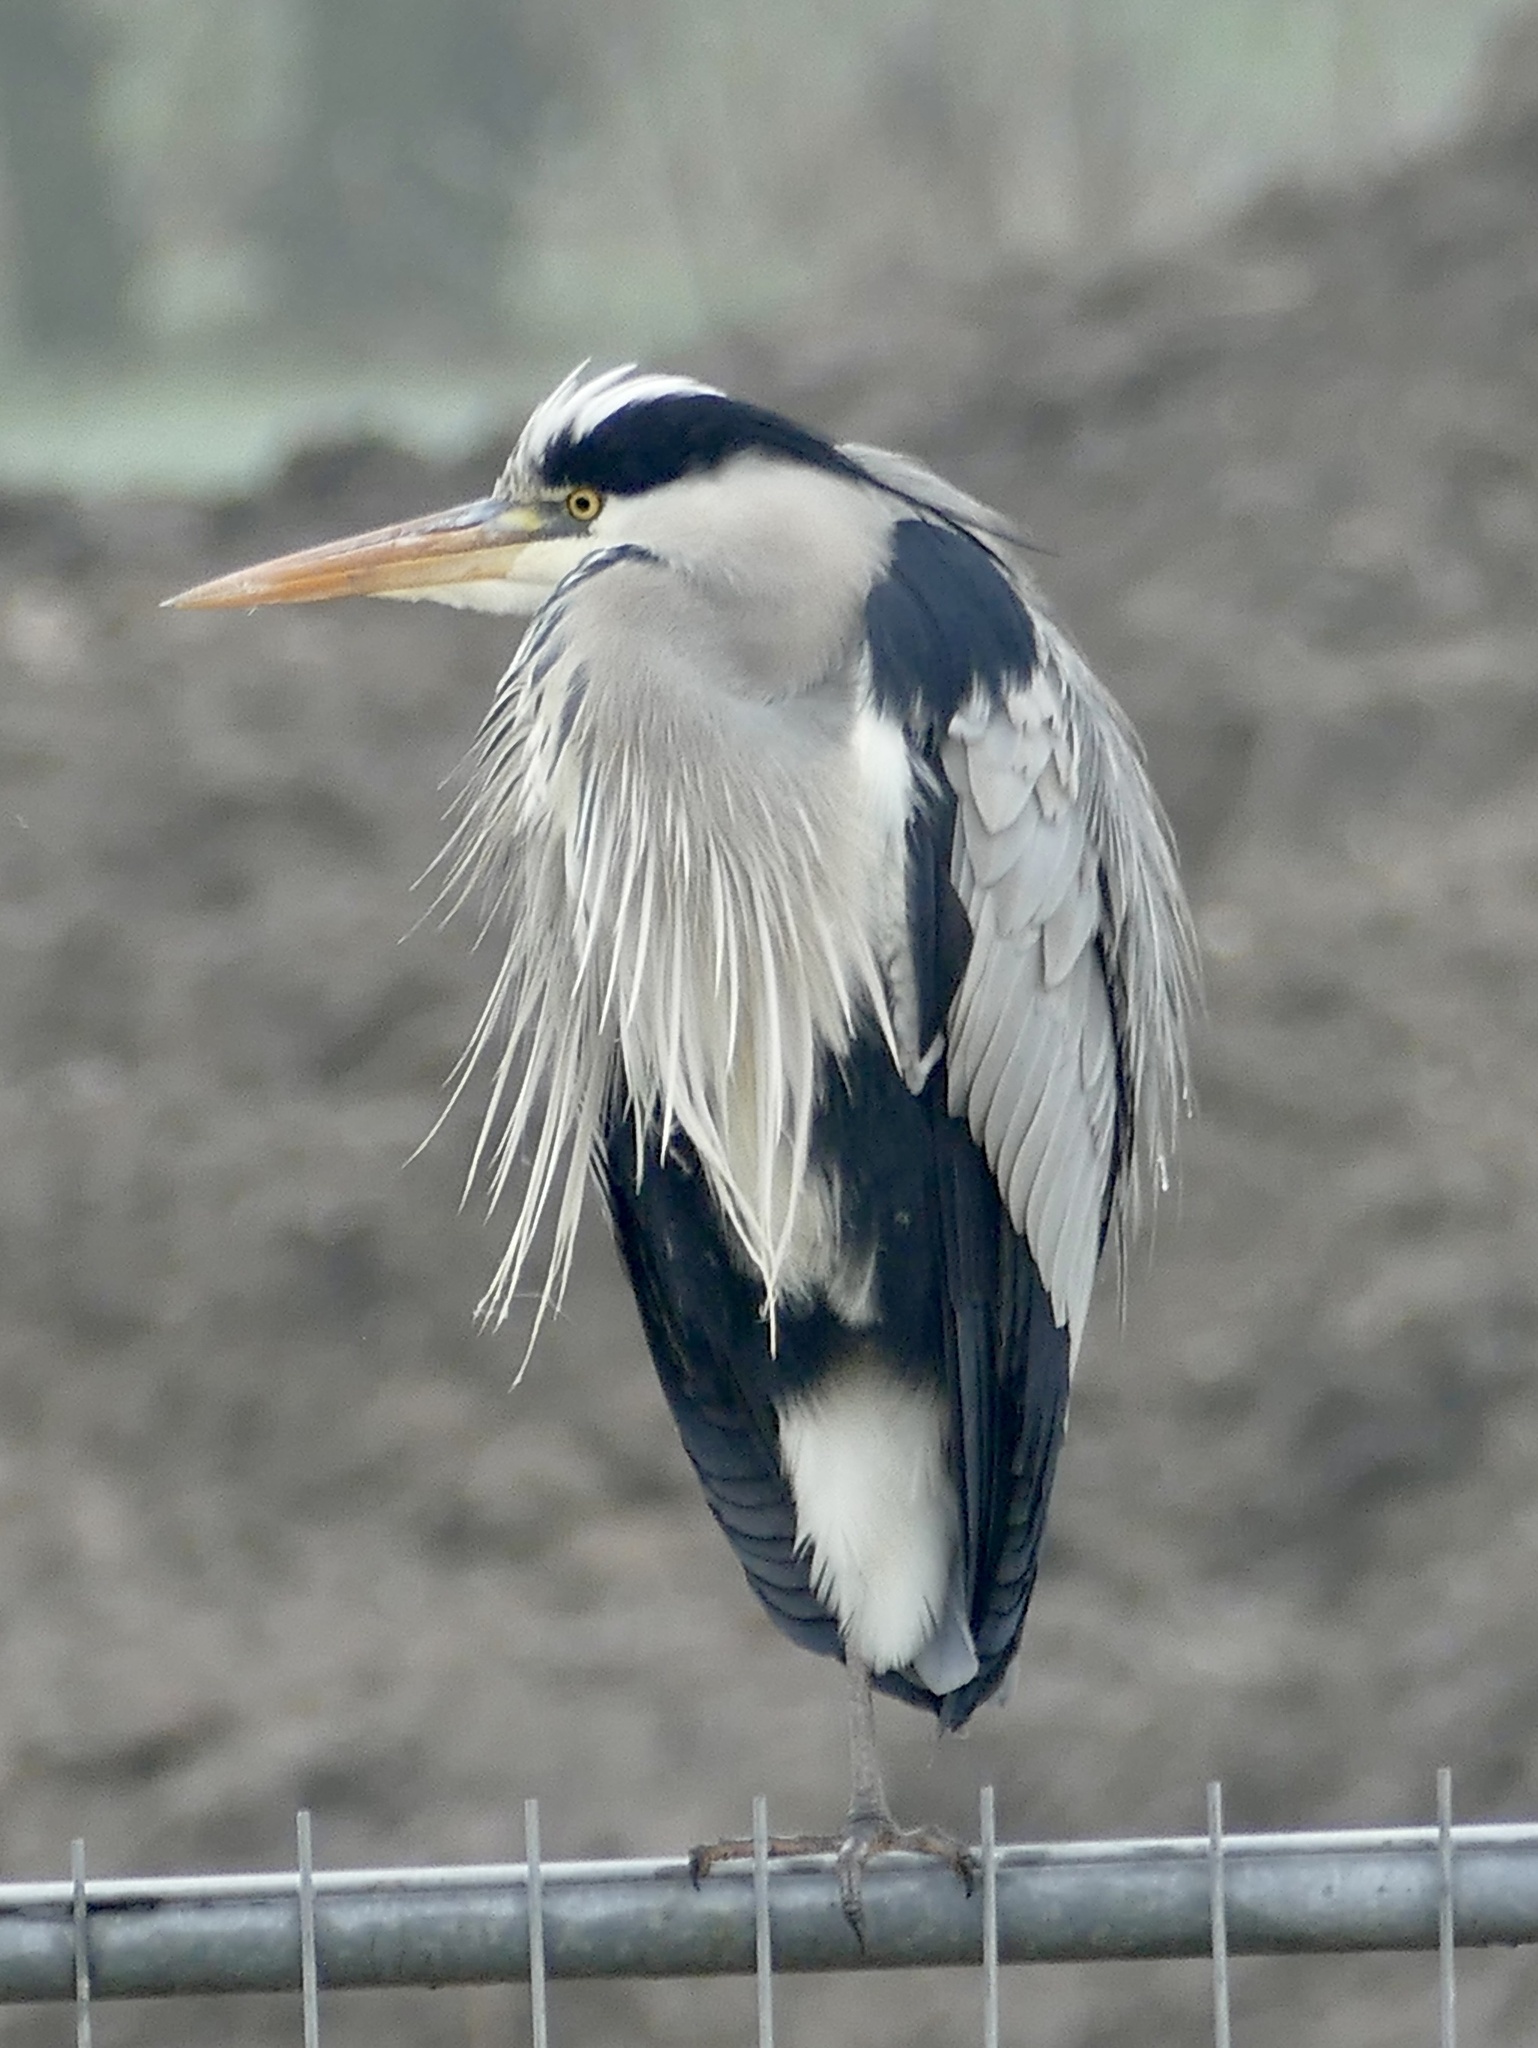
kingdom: Animalia
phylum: Chordata
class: Aves
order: Pelecaniformes
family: Ardeidae
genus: Ardea
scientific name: Ardea cinerea
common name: Grey heron
